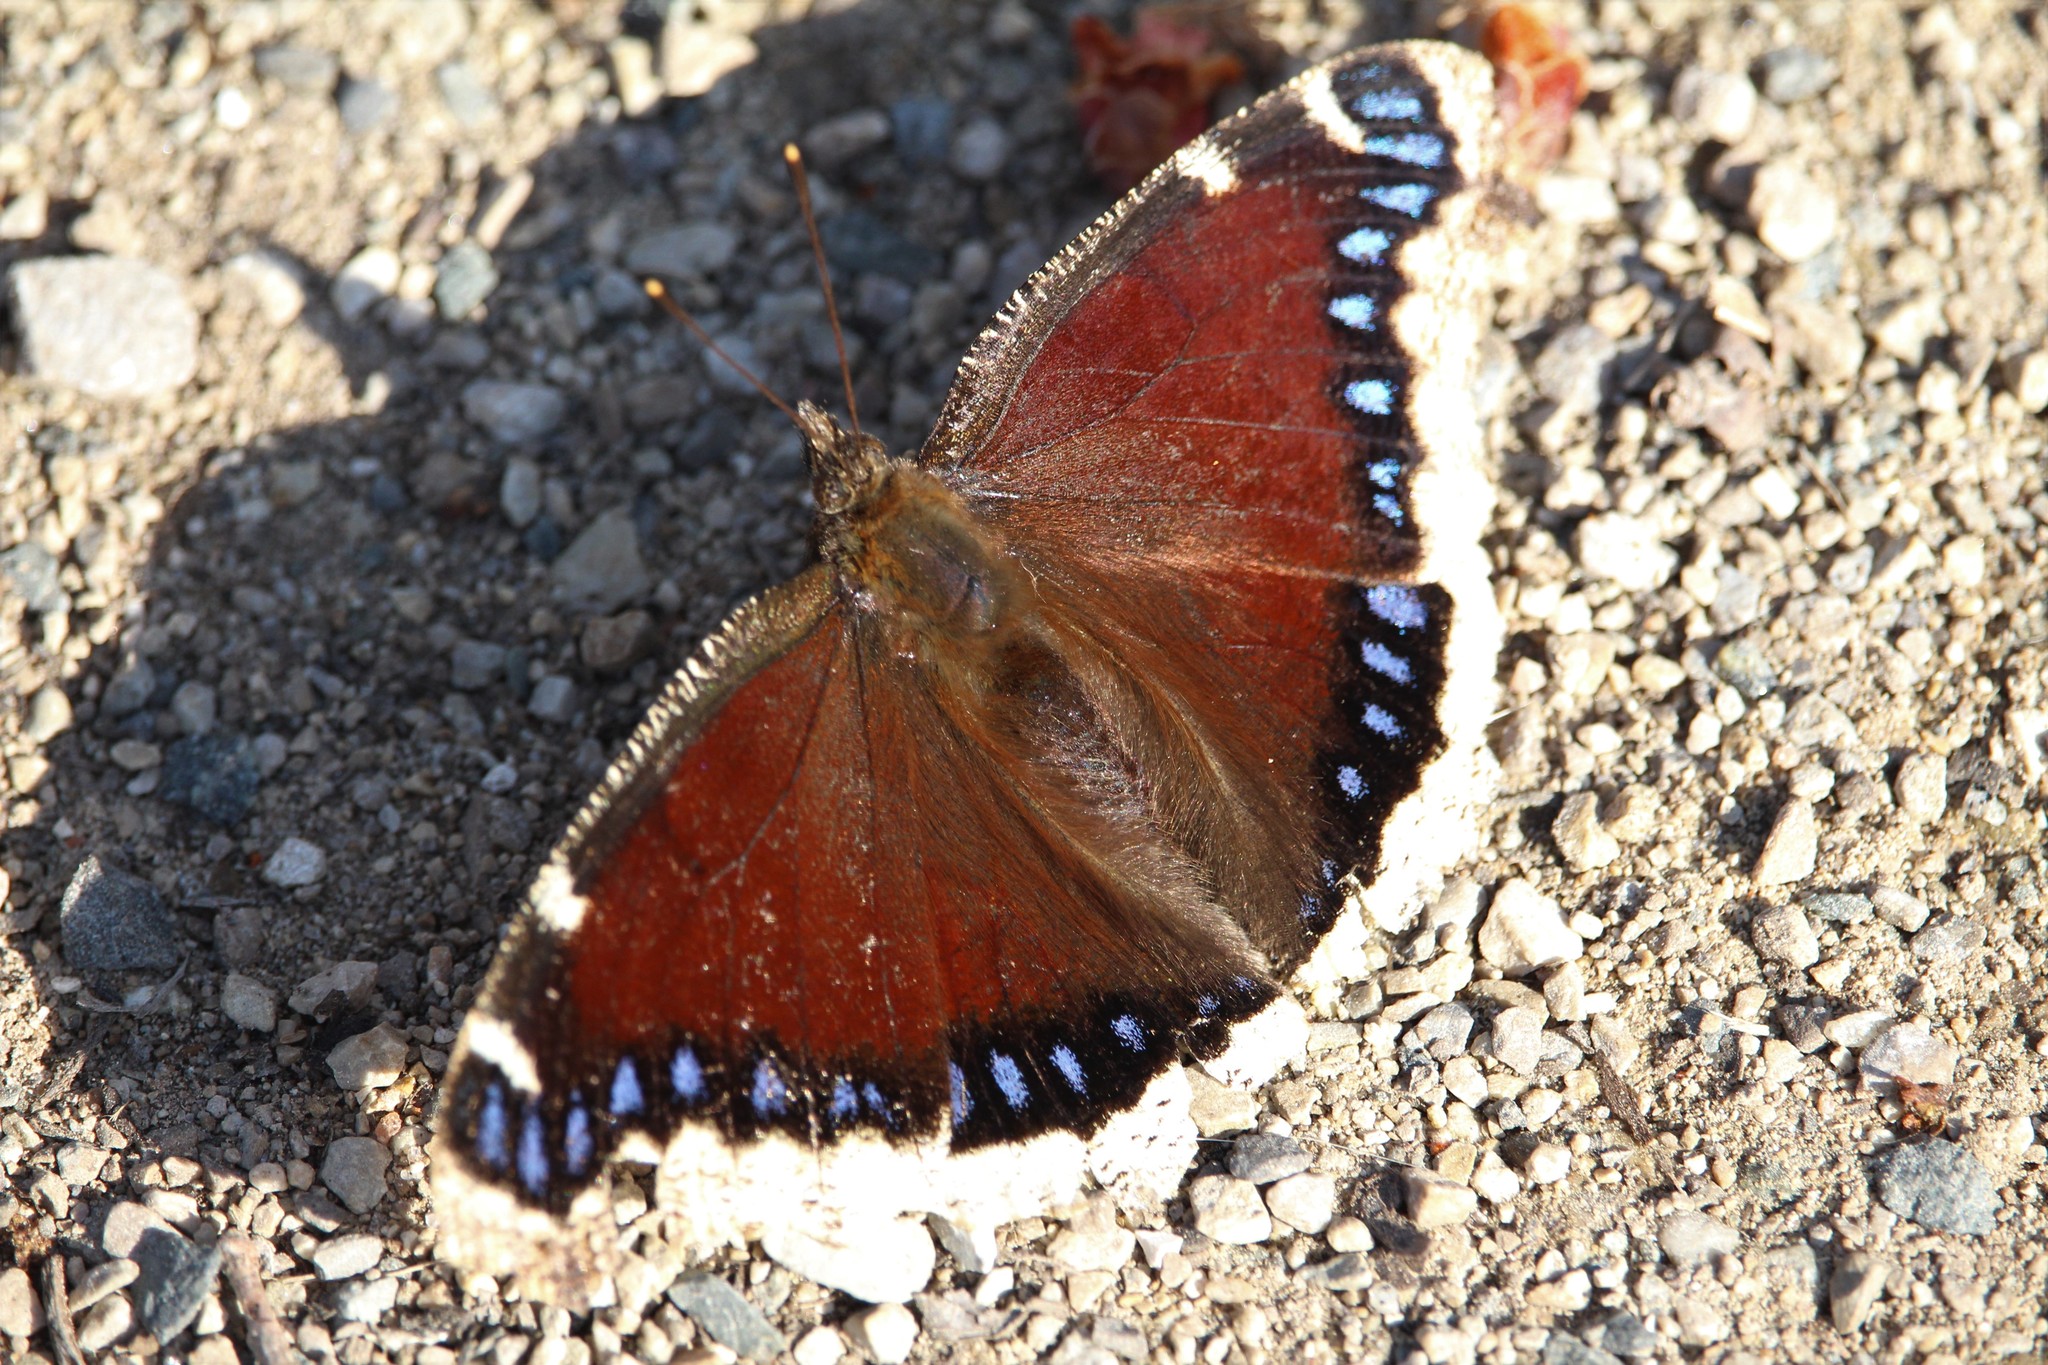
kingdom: Animalia
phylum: Arthropoda
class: Insecta
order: Lepidoptera
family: Nymphalidae
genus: Nymphalis
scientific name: Nymphalis antiopa
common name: Camberwell beauty
